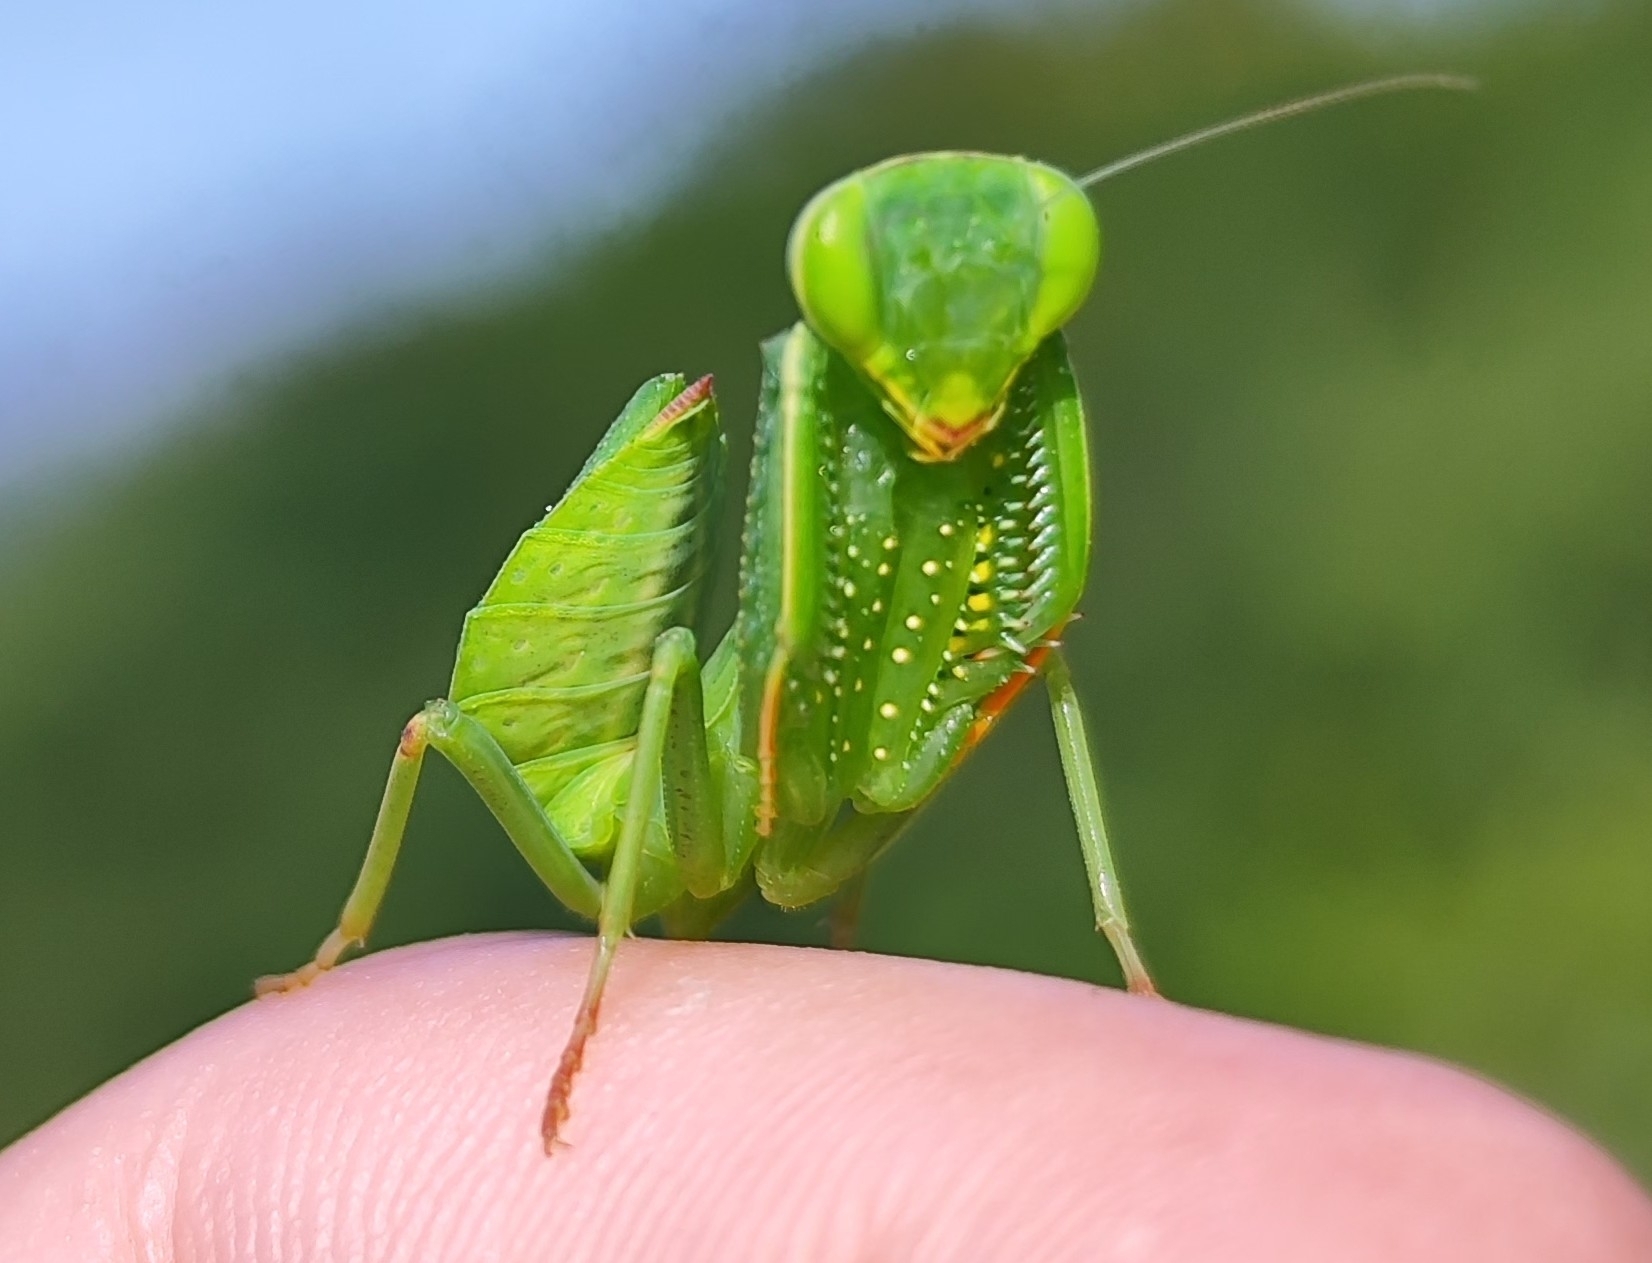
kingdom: Animalia
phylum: Arthropoda
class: Insecta
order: Mantodea
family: Photinaidae
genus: Photiomantis
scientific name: Photiomantis planicephala
